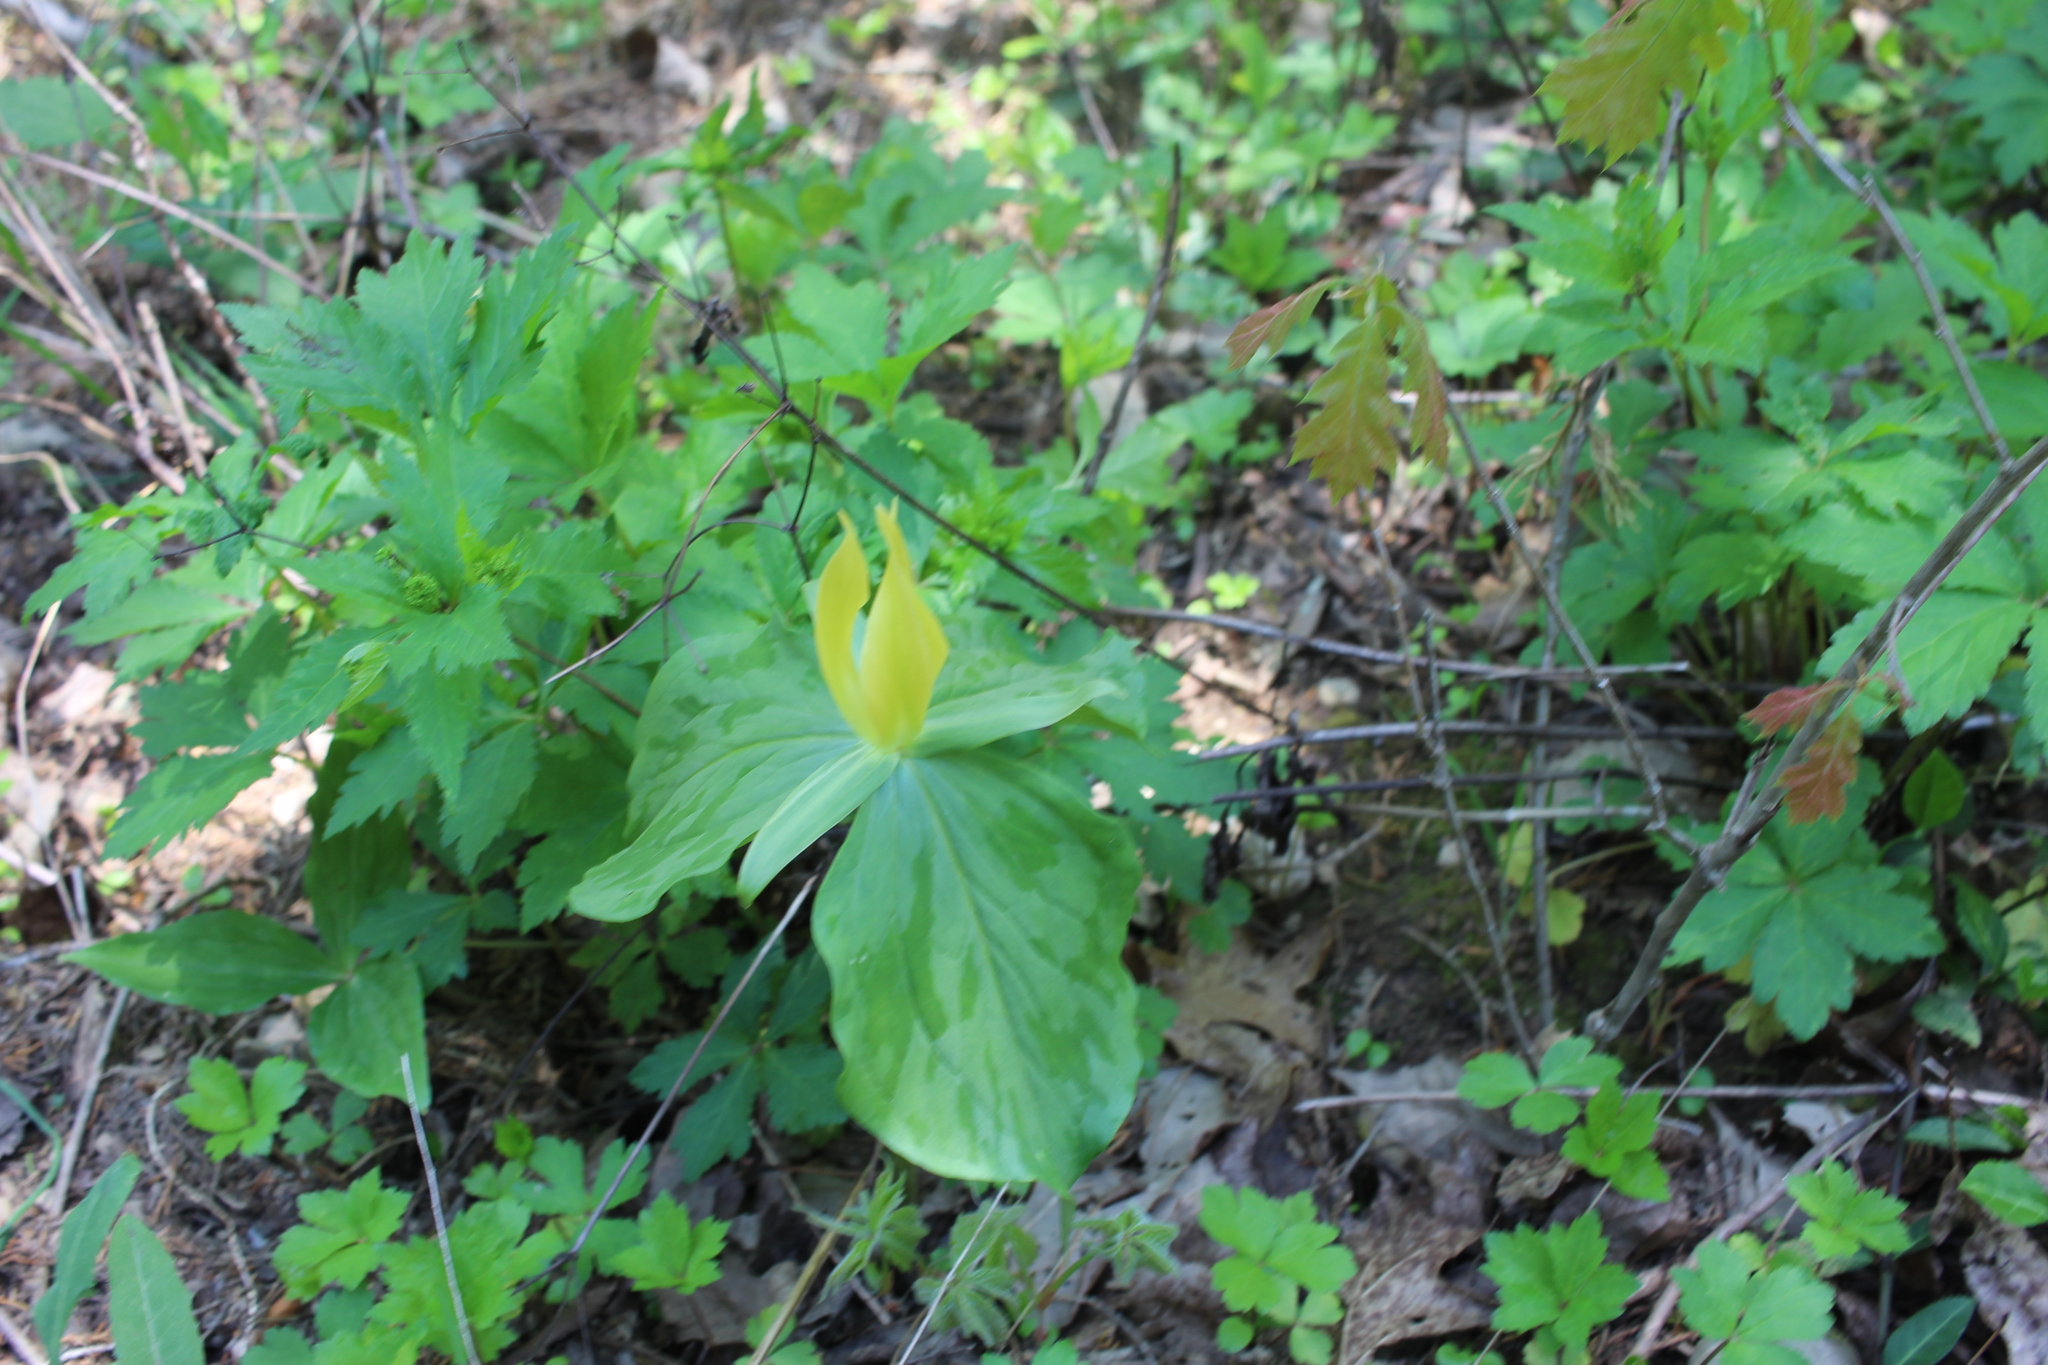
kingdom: Plantae
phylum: Tracheophyta
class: Liliopsida
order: Liliales
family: Melanthiaceae
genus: Trillium
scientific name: Trillium luteum
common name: Wax trillium
